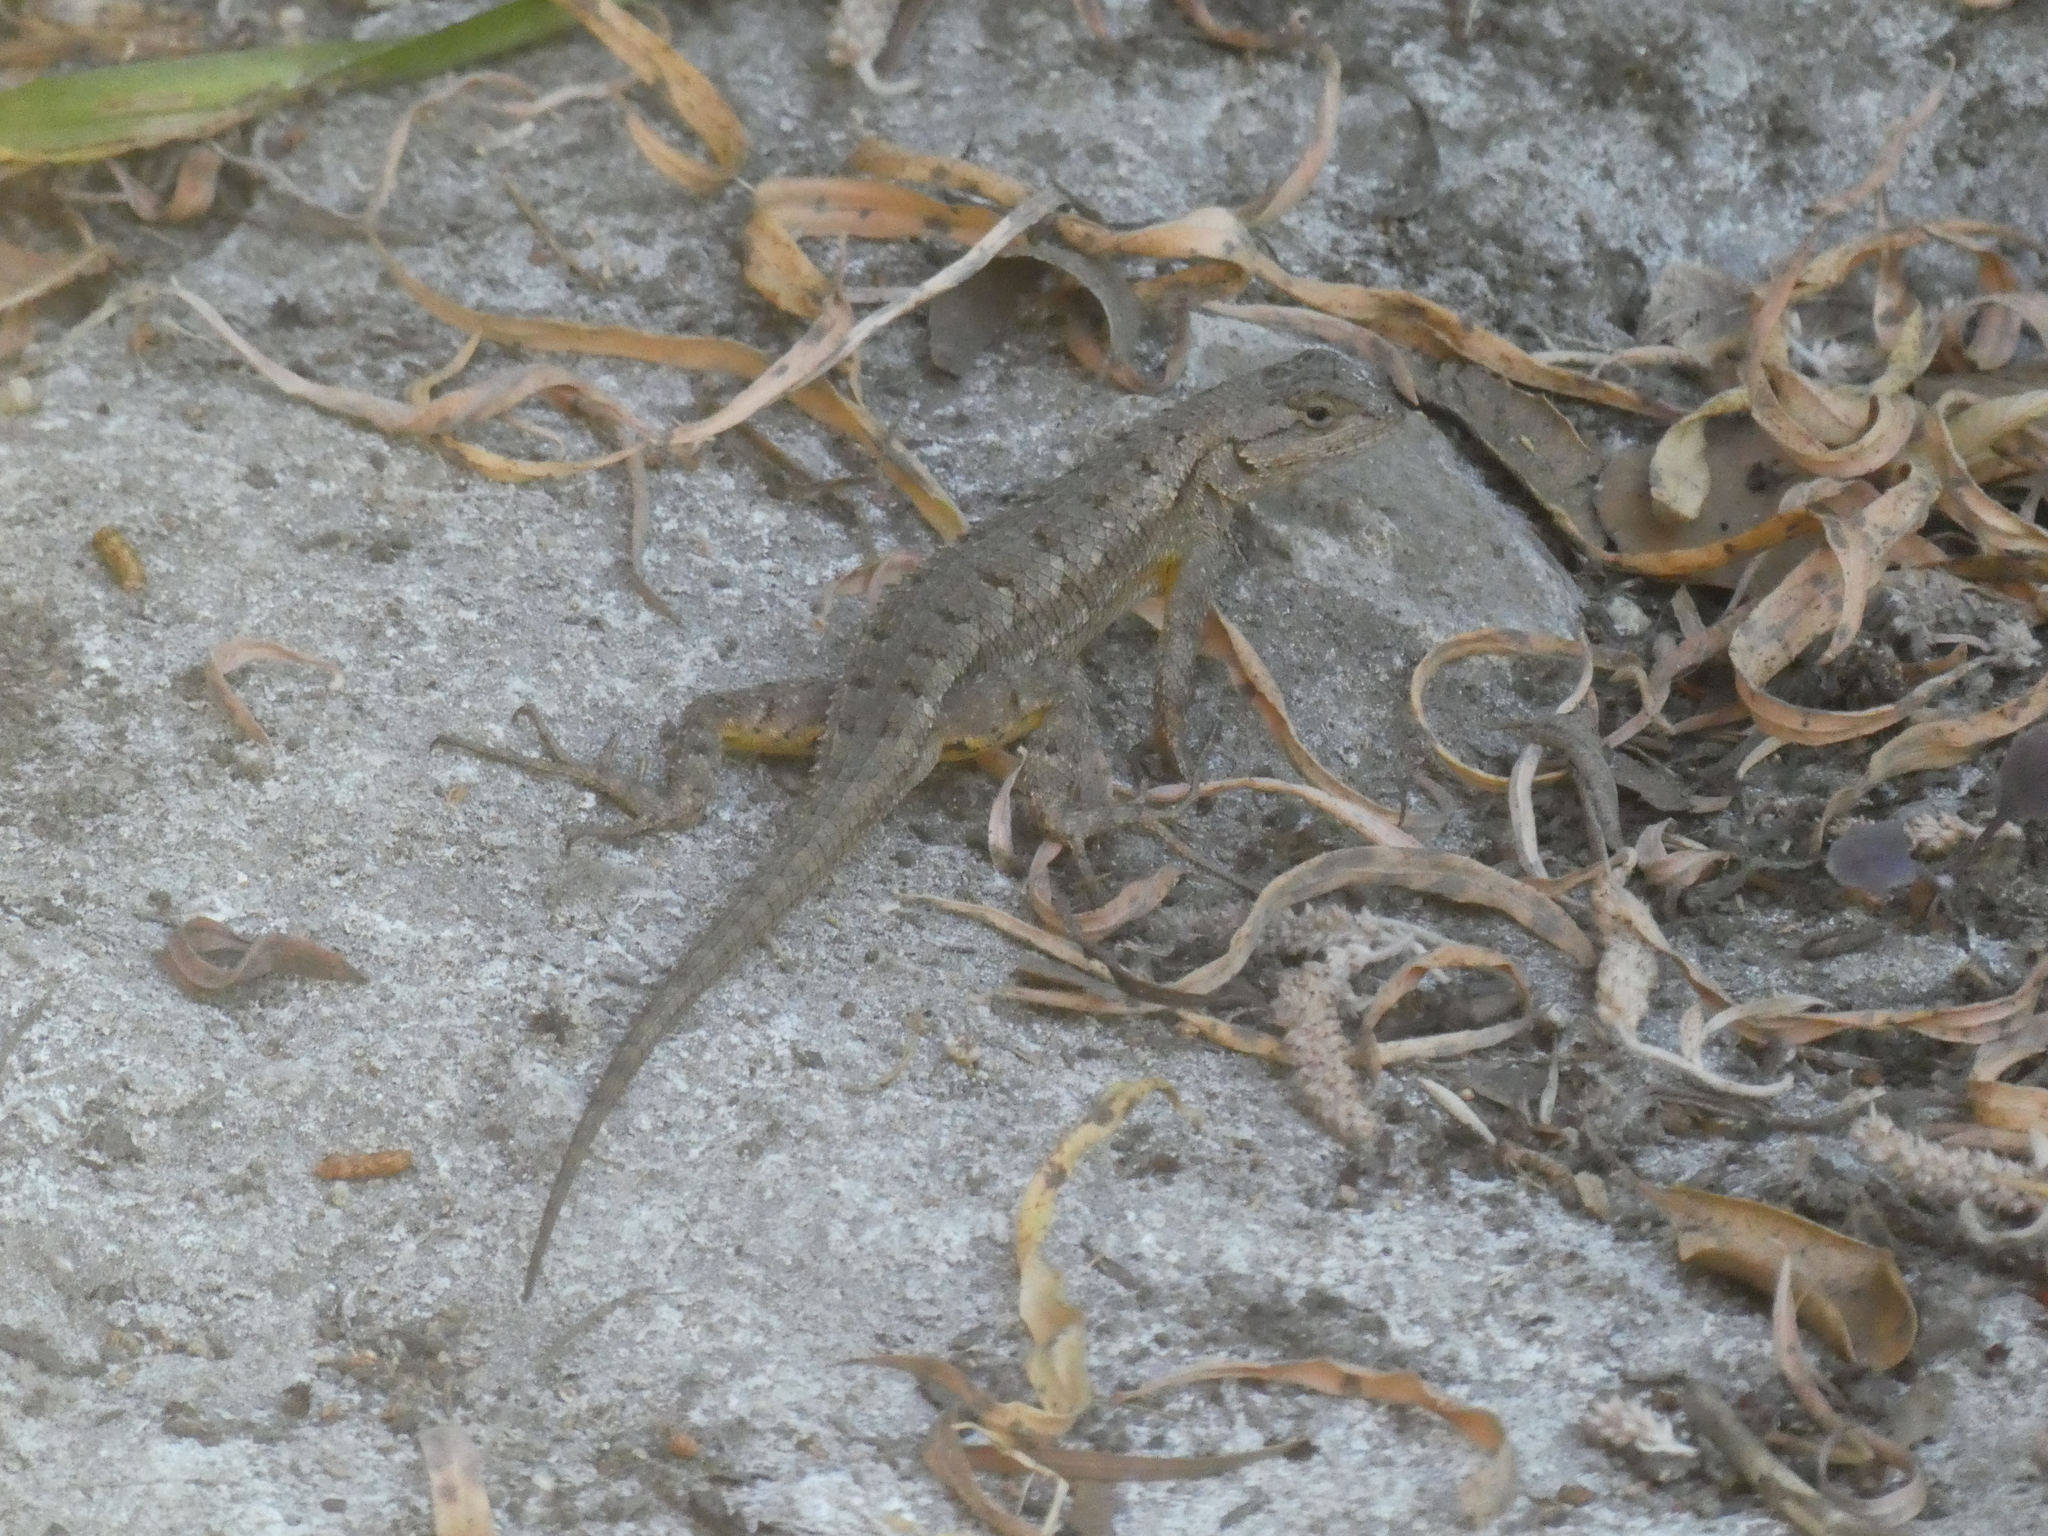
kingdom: Animalia
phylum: Chordata
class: Squamata
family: Phrynosomatidae
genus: Sceloporus
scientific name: Sceloporus occidentalis
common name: Western fence lizard
